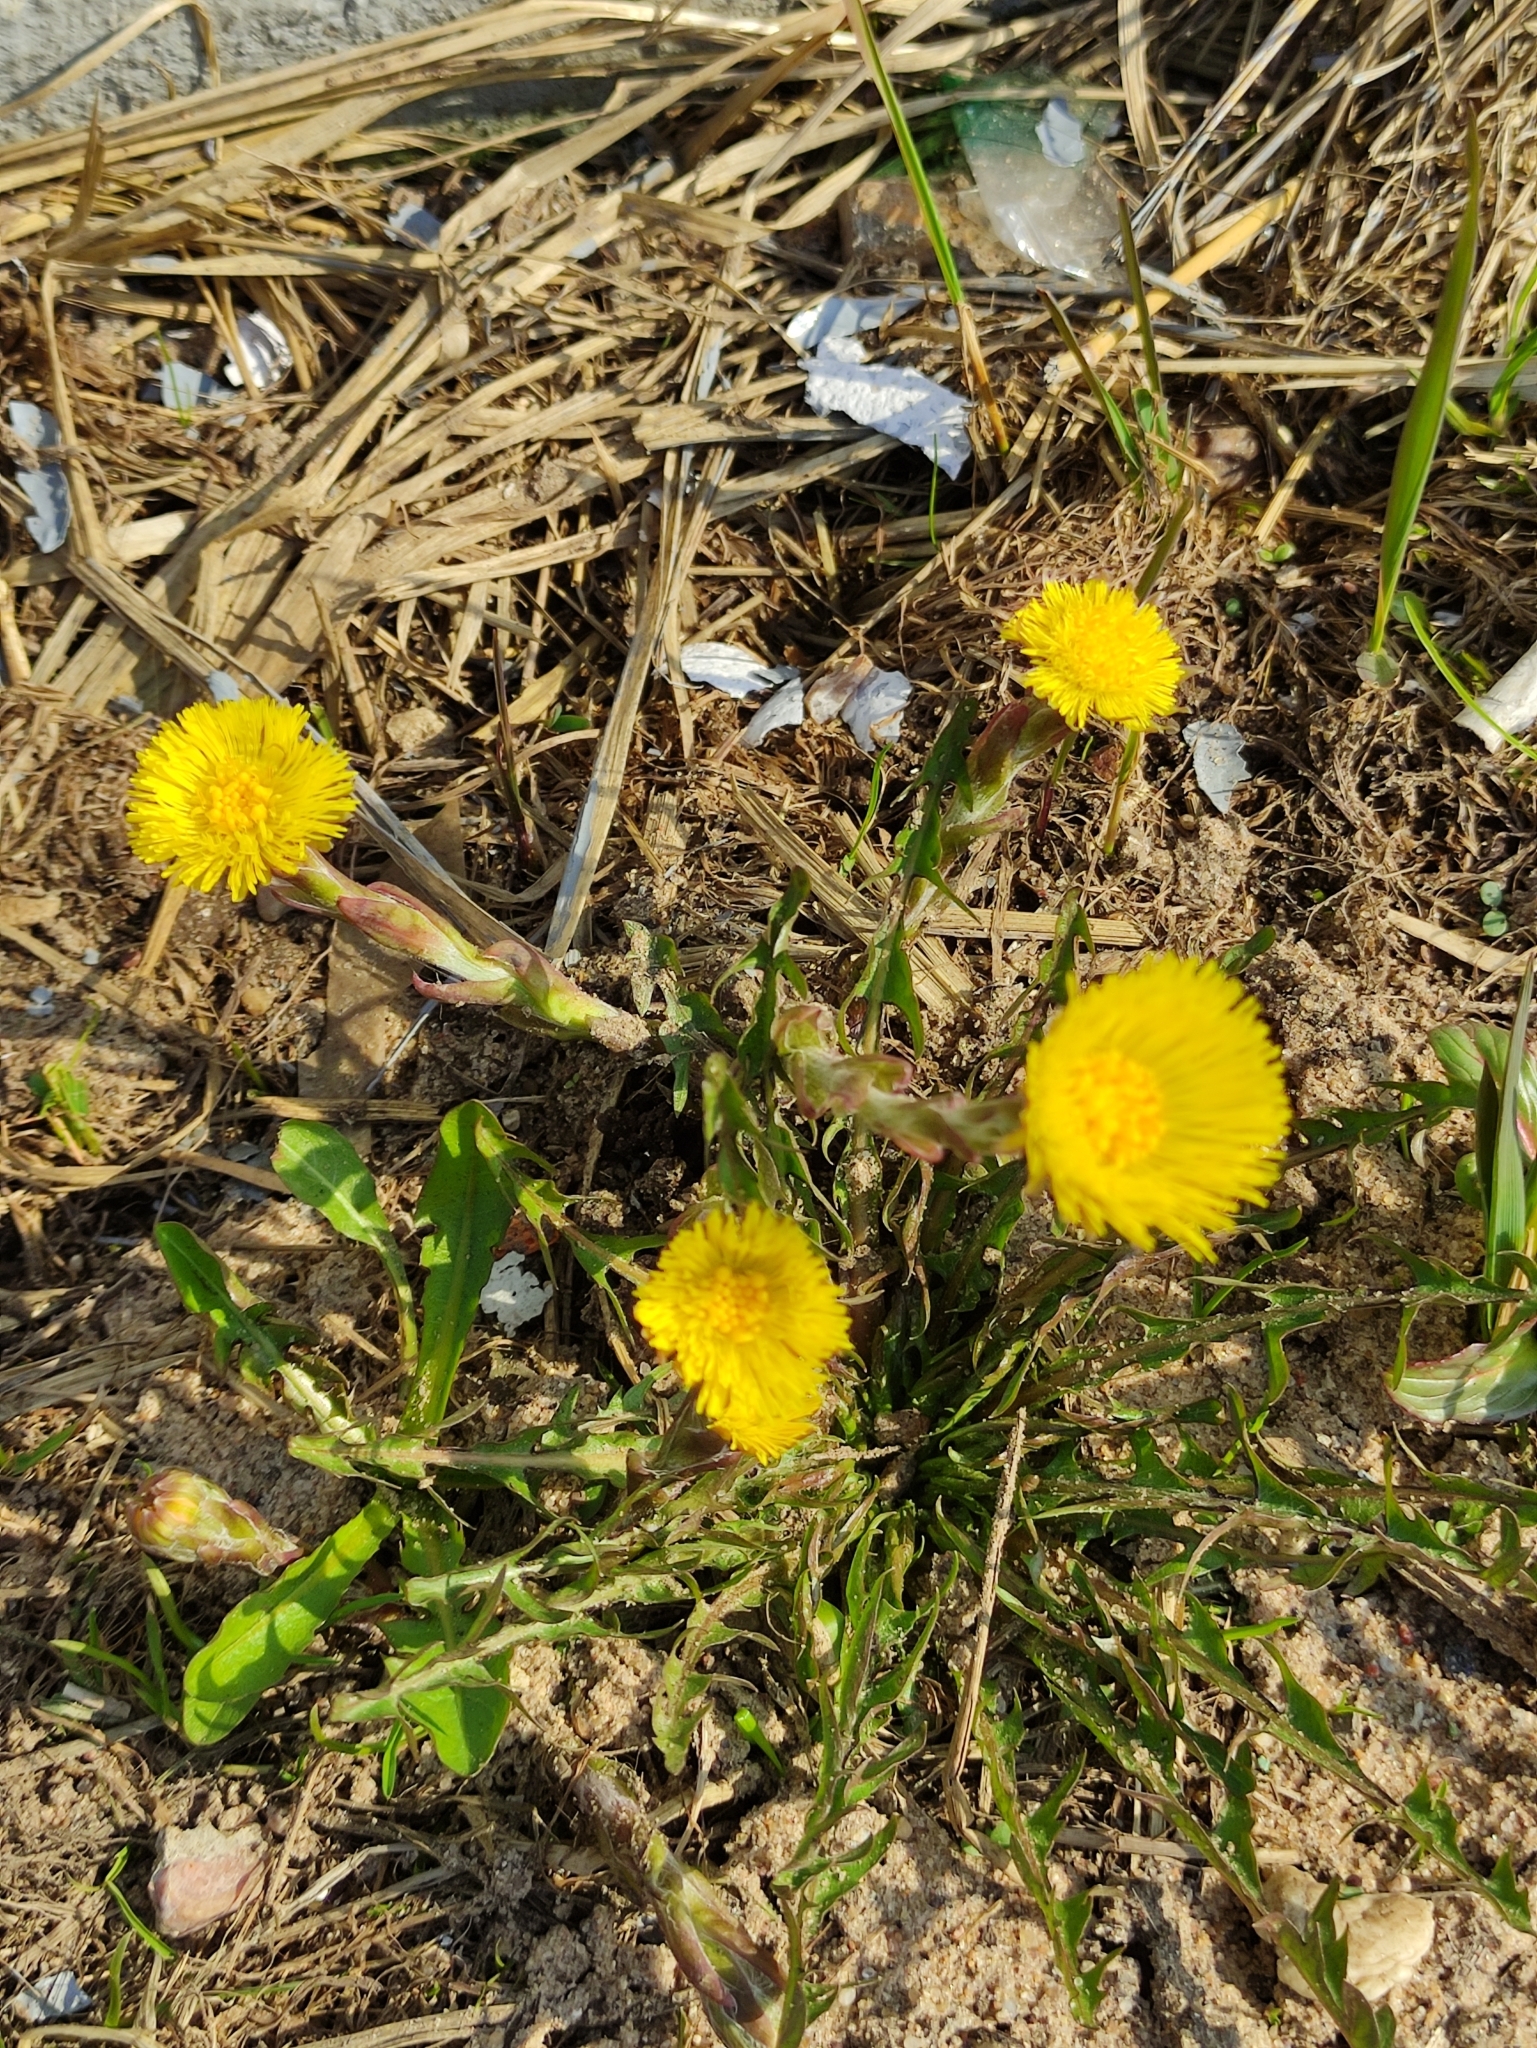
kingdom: Plantae
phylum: Tracheophyta
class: Magnoliopsida
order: Asterales
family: Asteraceae
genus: Tussilago
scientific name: Tussilago farfara
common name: Coltsfoot
